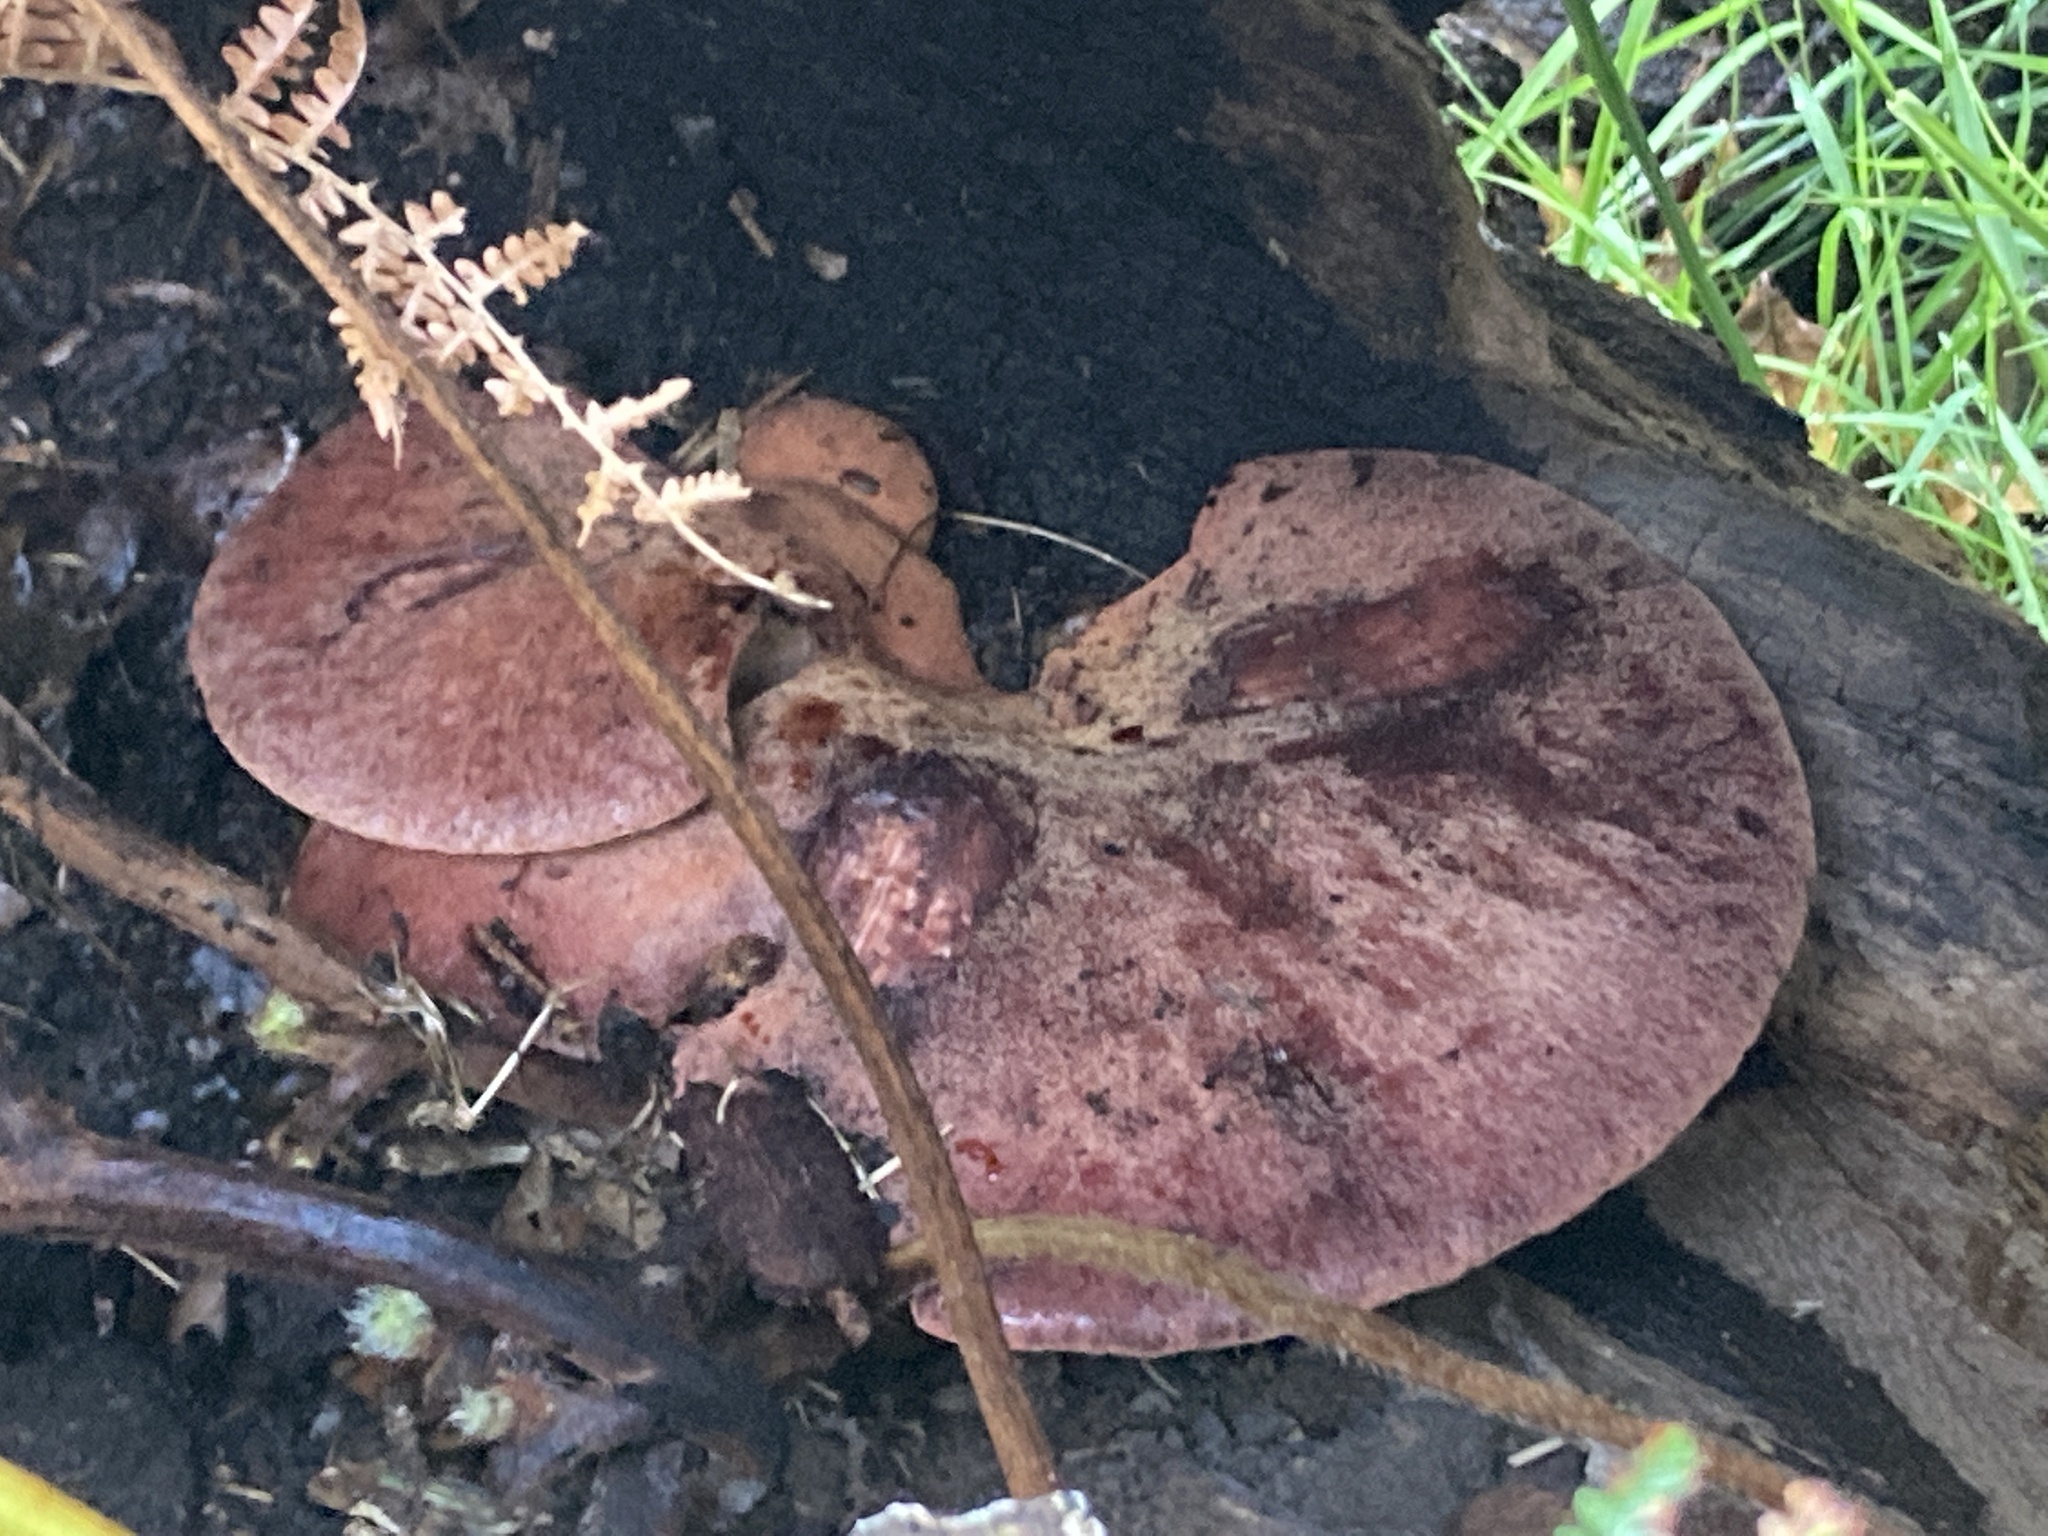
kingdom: Fungi
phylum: Basidiomycota
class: Agaricomycetes
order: Agaricales
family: Fistulinaceae
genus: Fistulina
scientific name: Fistulina hepatica
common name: Beef-steak fungus
